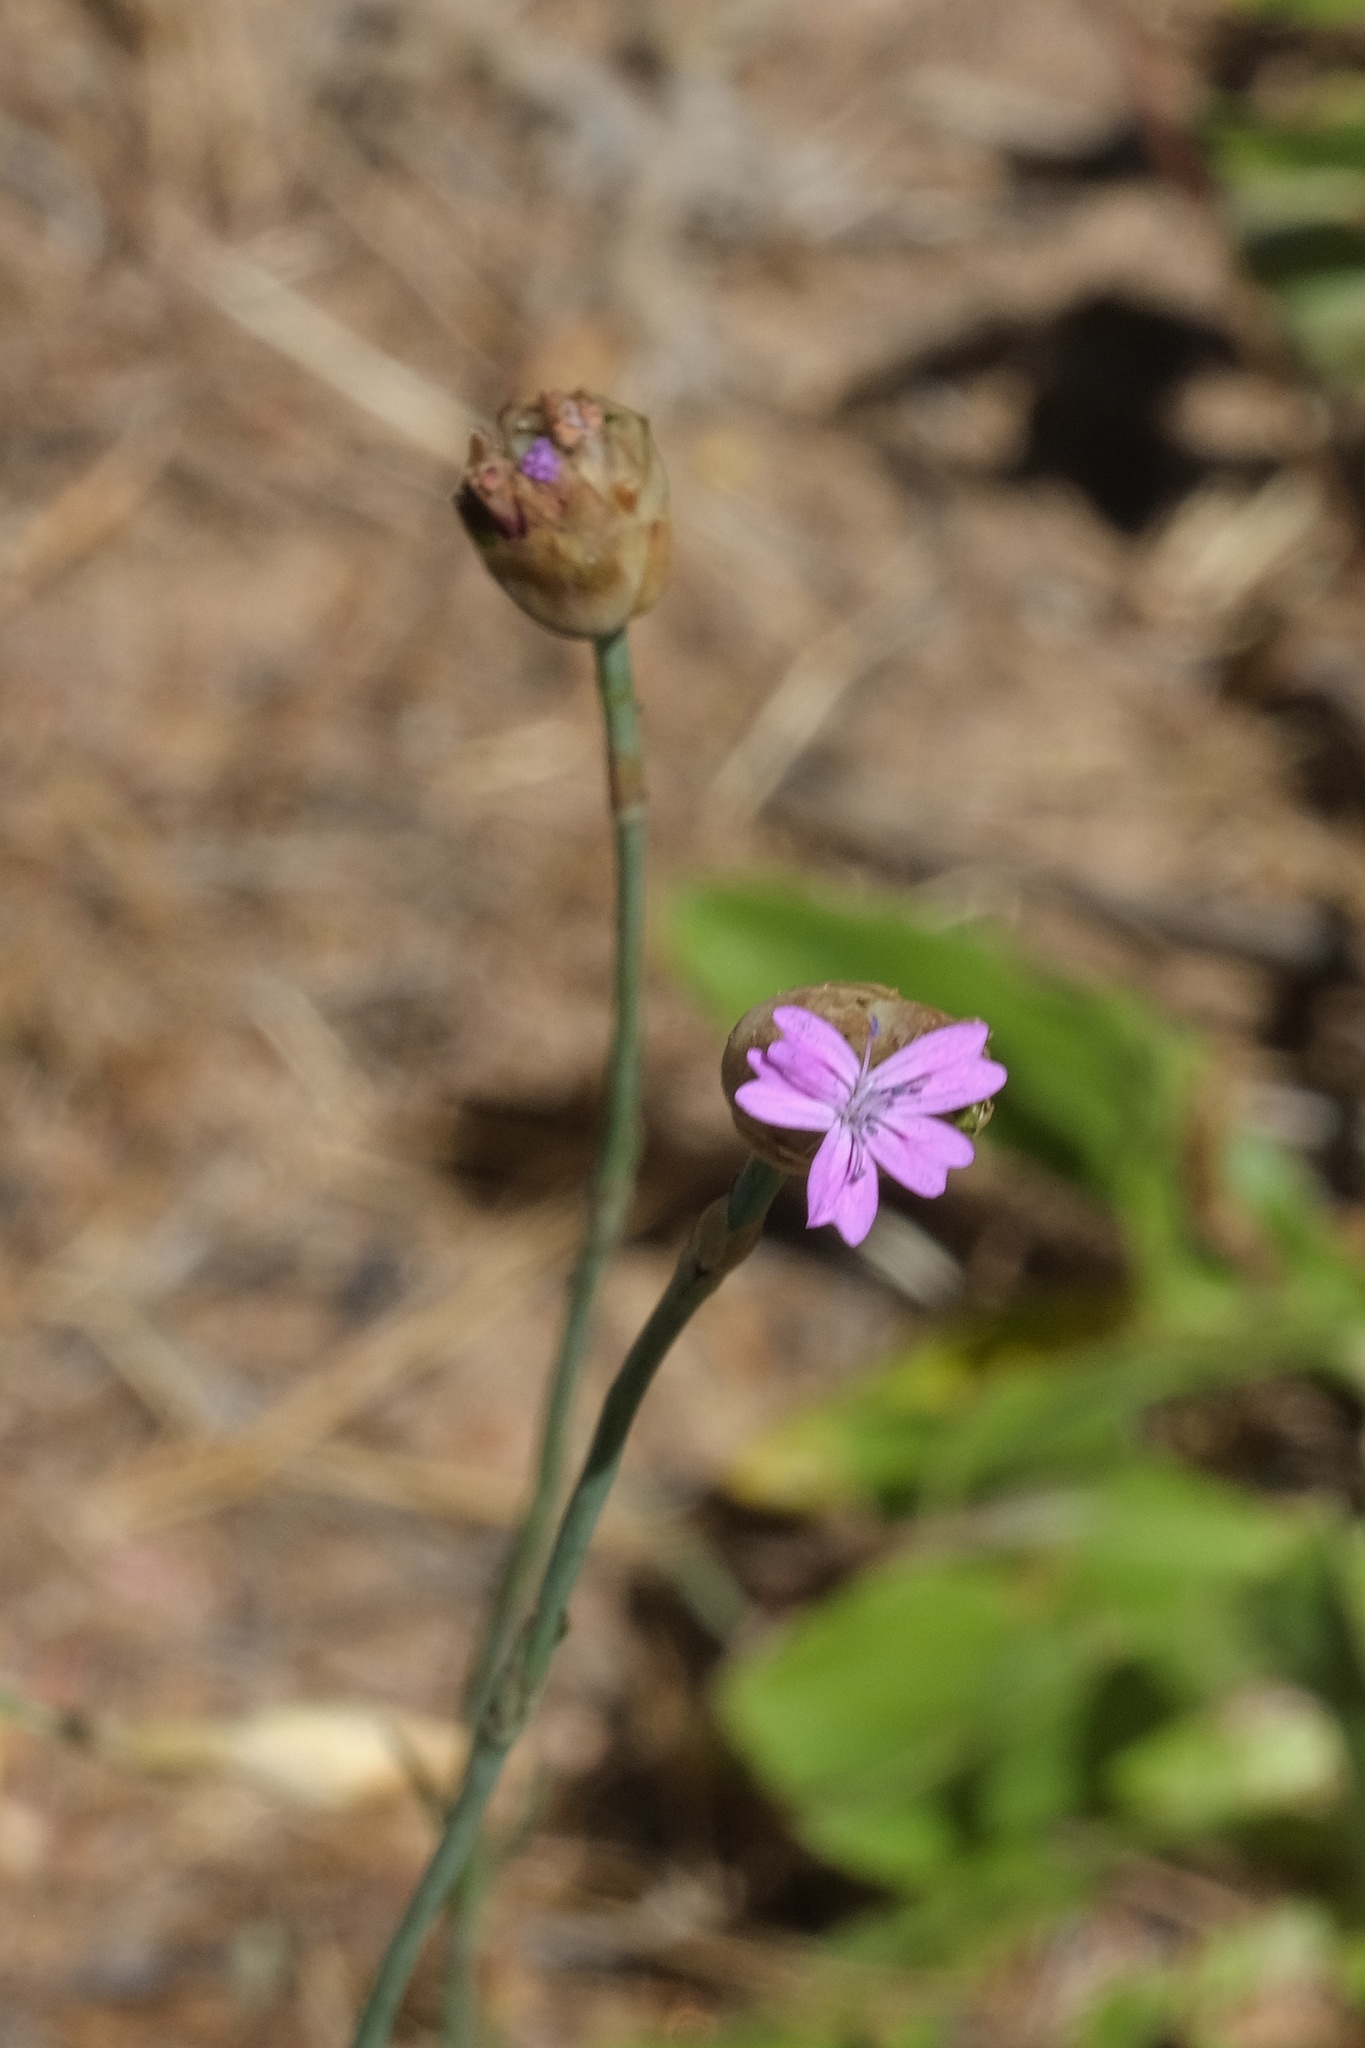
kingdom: Plantae
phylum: Tracheophyta
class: Magnoliopsida
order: Caryophyllales
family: Caryophyllaceae
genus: Petrorhagia
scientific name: Petrorhagia nanteuilii
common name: Proliferous pink
